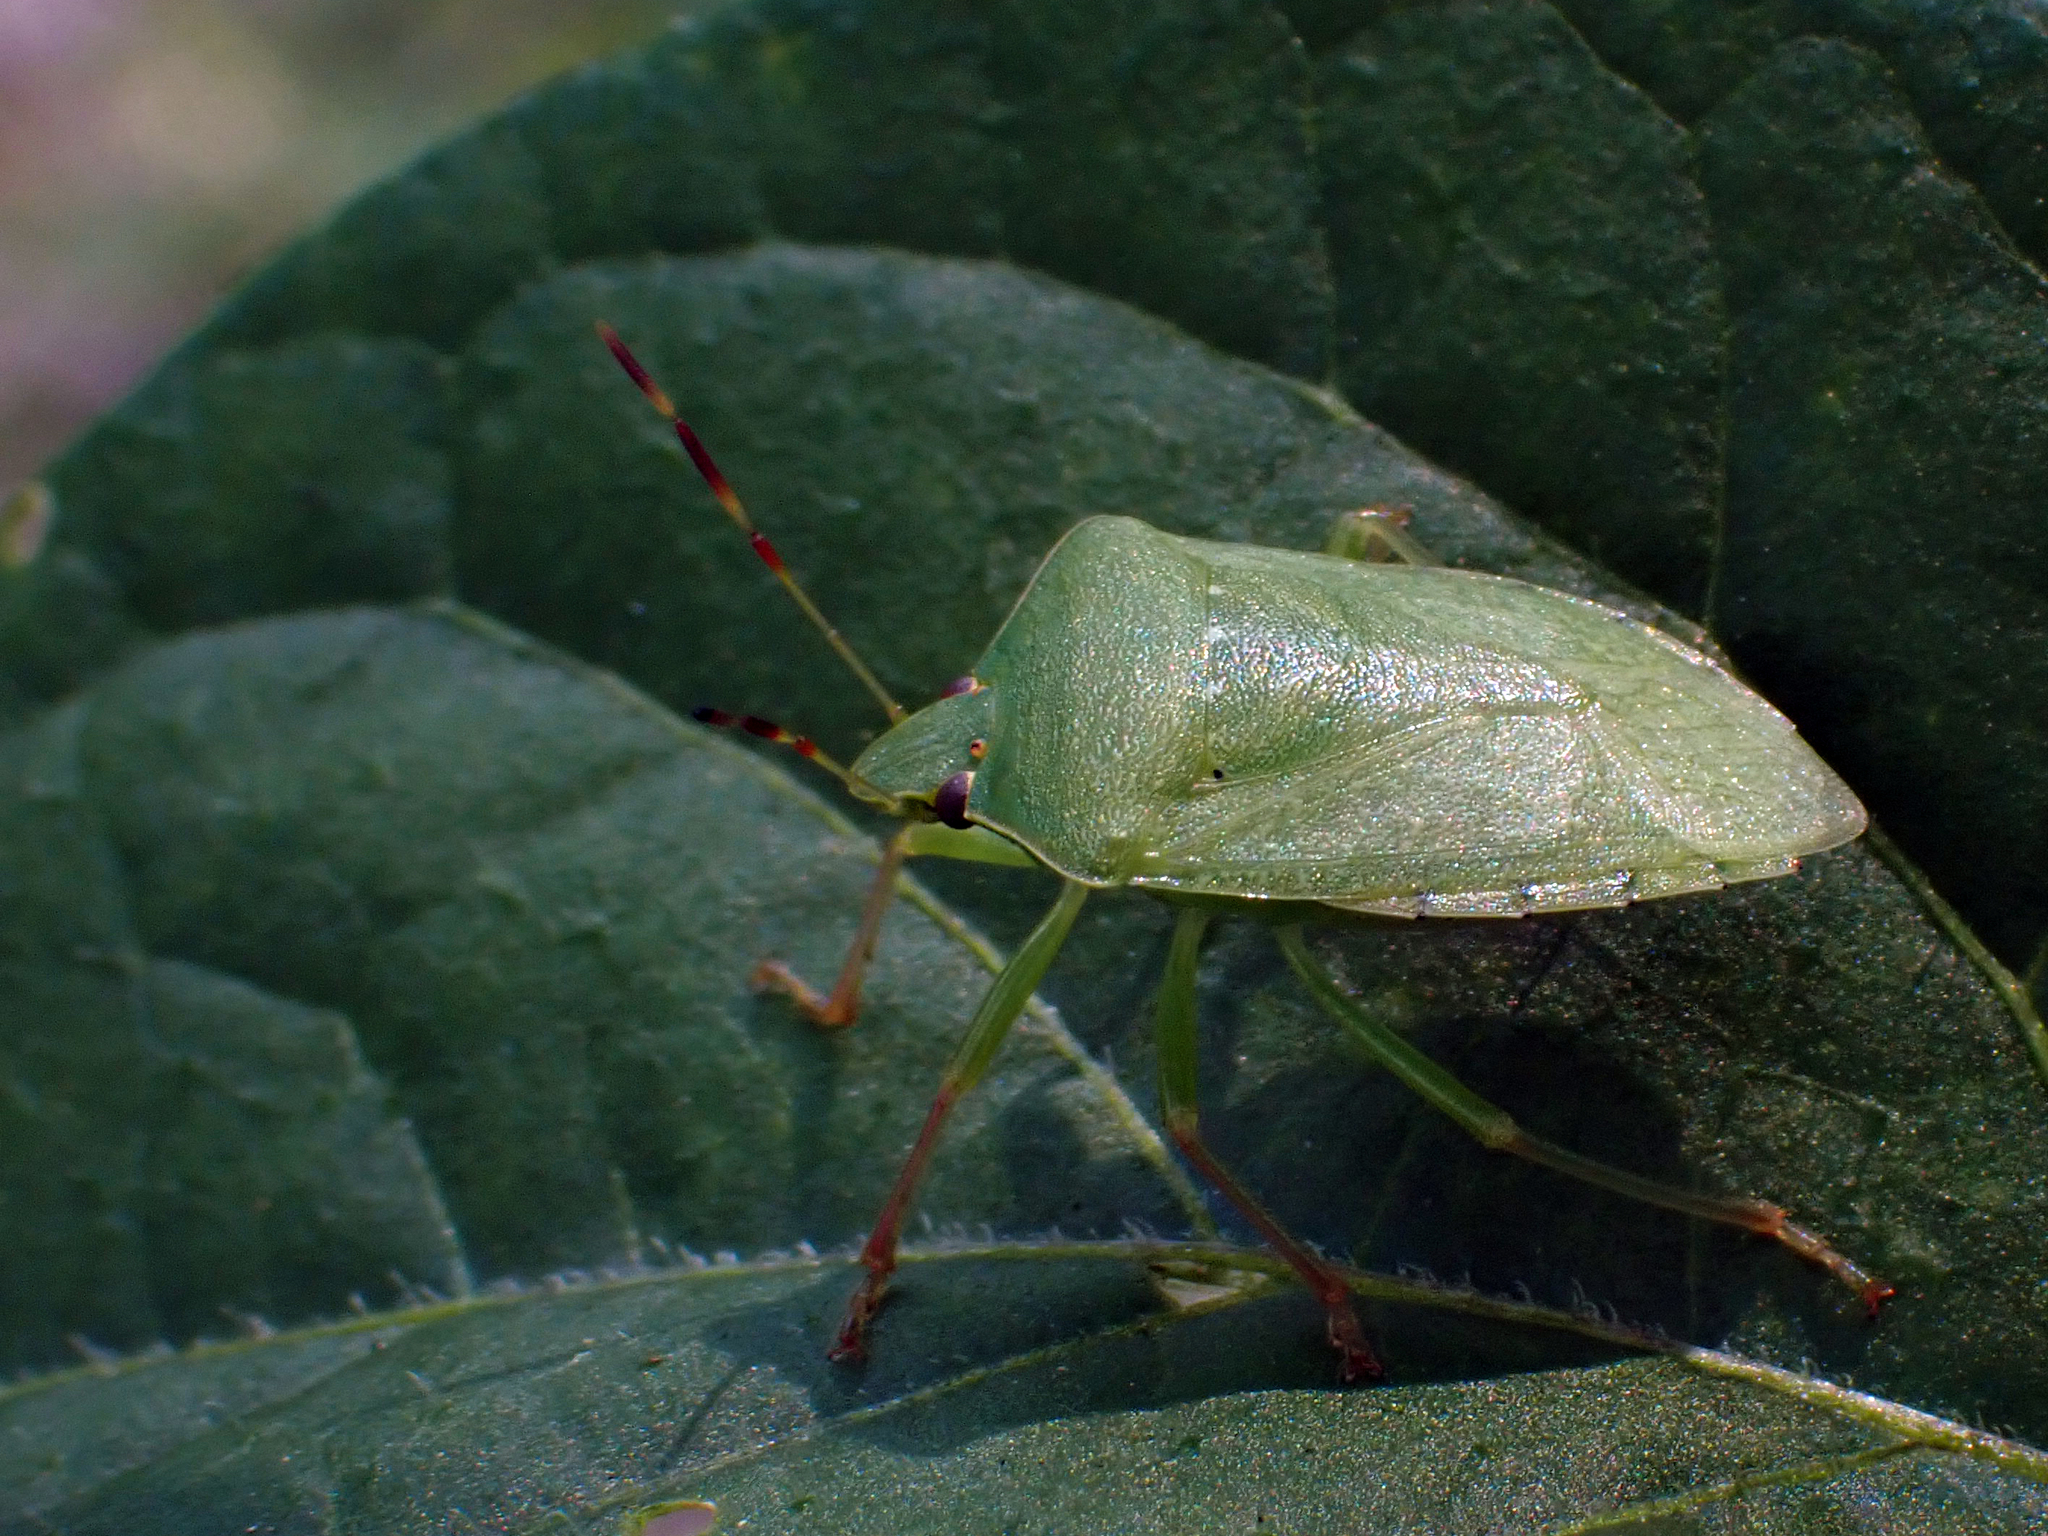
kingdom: Animalia
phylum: Arthropoda
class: Insecta
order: Hemiptera
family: Pentatomidae
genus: Nezara
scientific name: Nezara viridula
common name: Southern green stink bug
